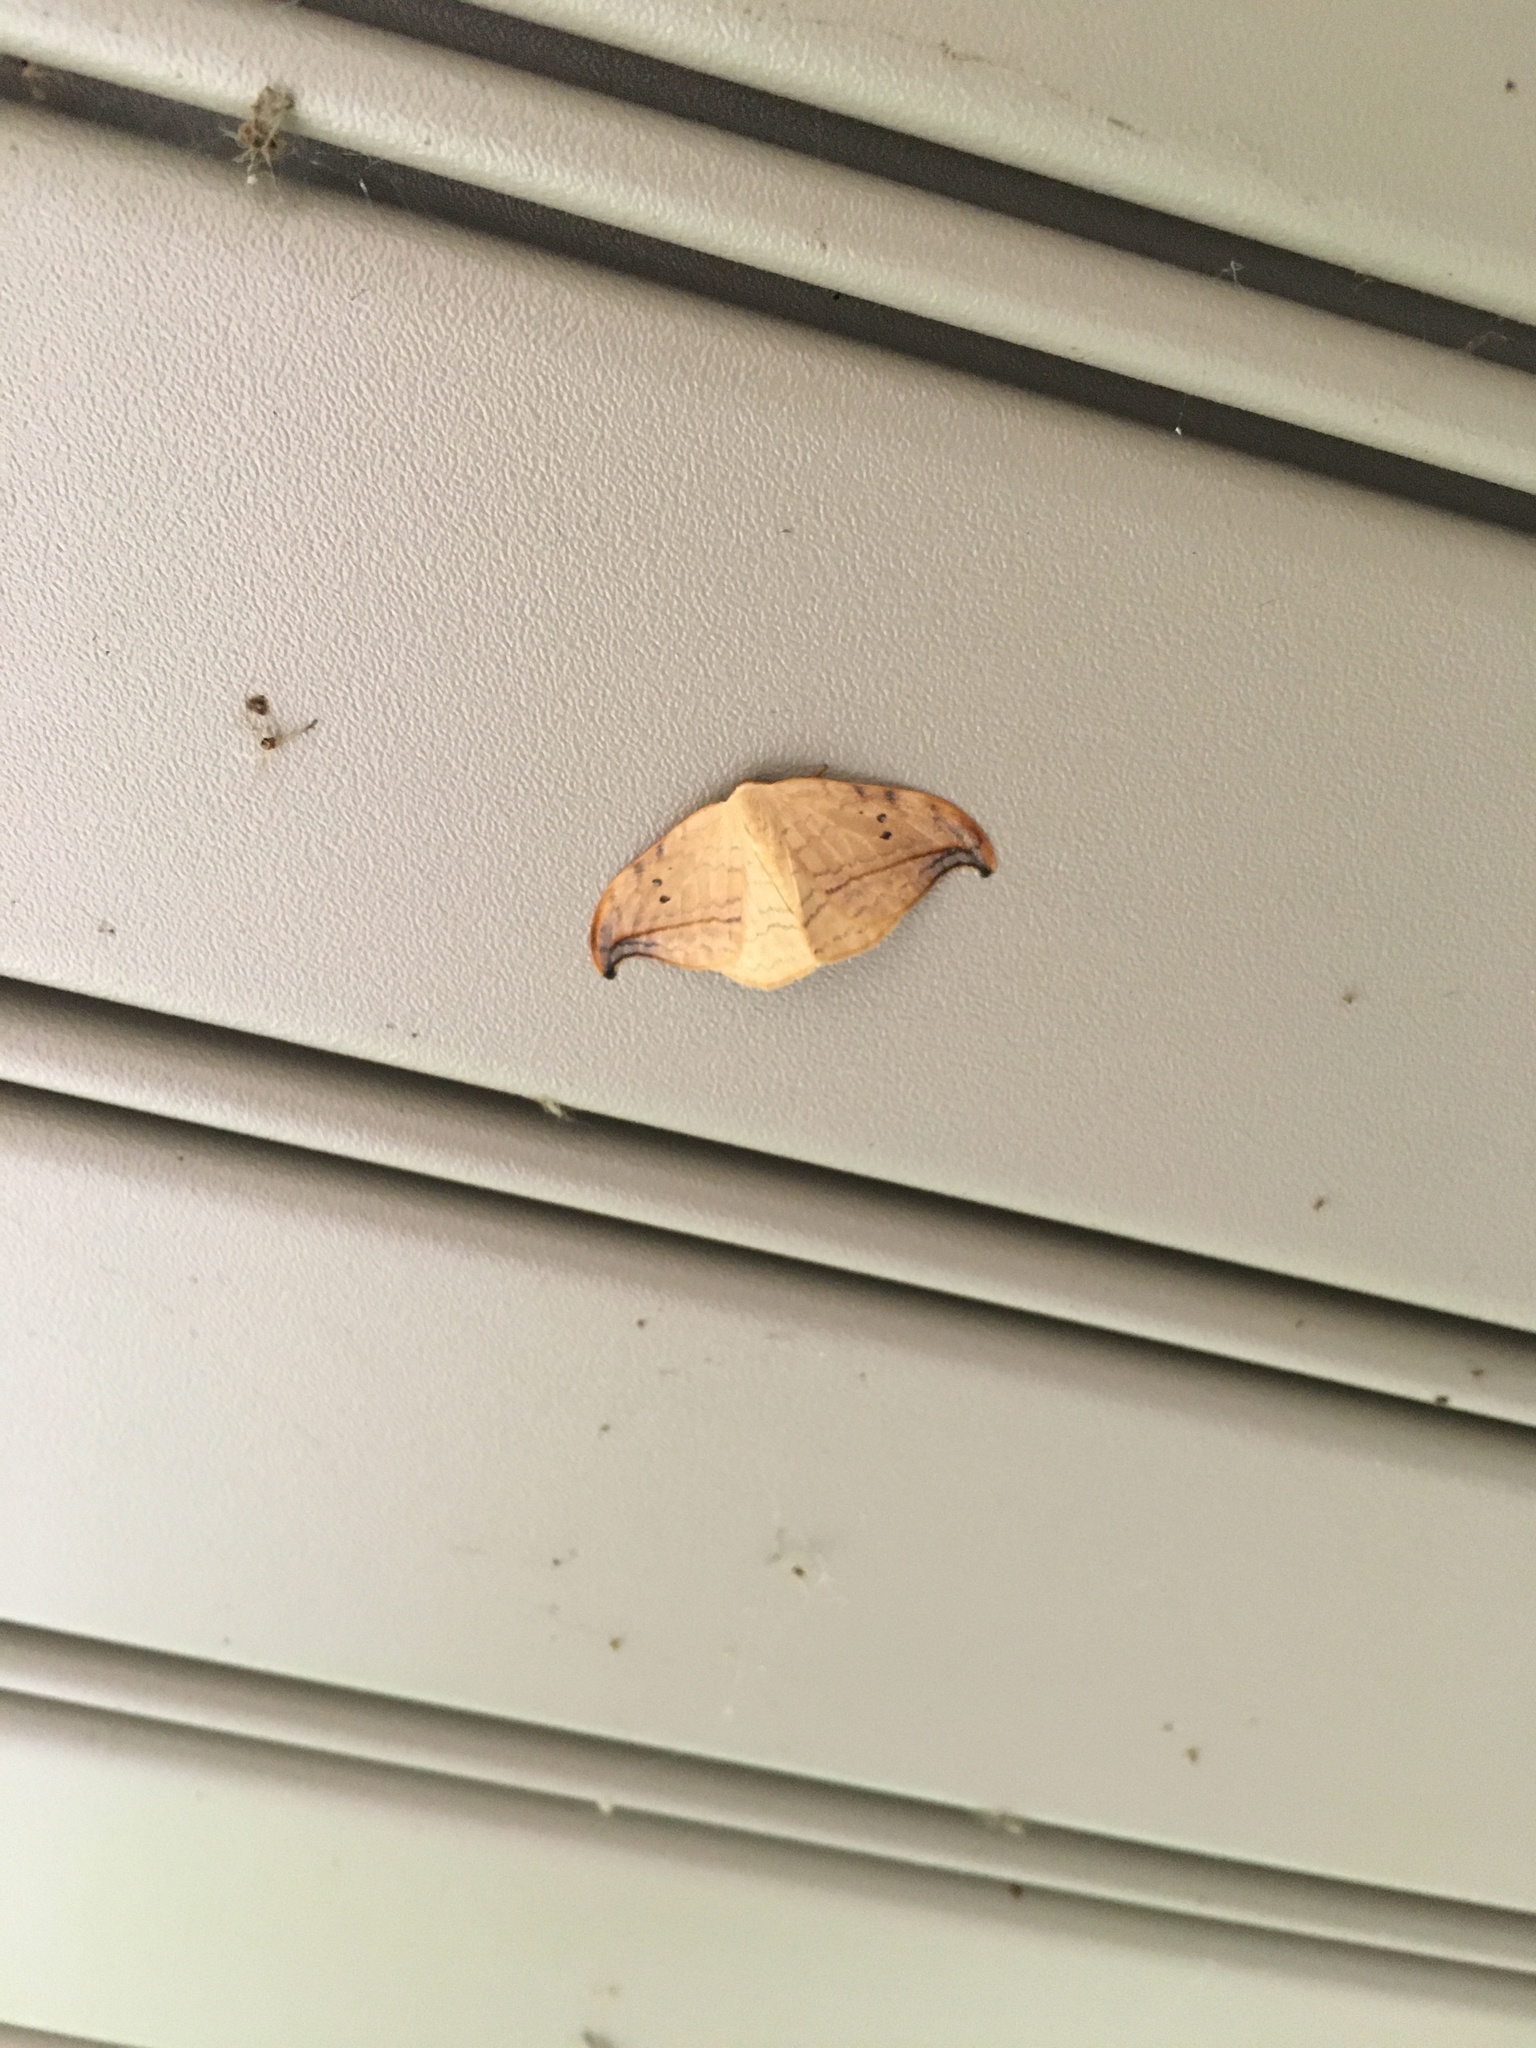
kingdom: Animalia
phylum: Arthropoda
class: Insecta
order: Lepidoptera
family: Drepanidae
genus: Drepana
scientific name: Drepana arcuata
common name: Arched hooktip moth
